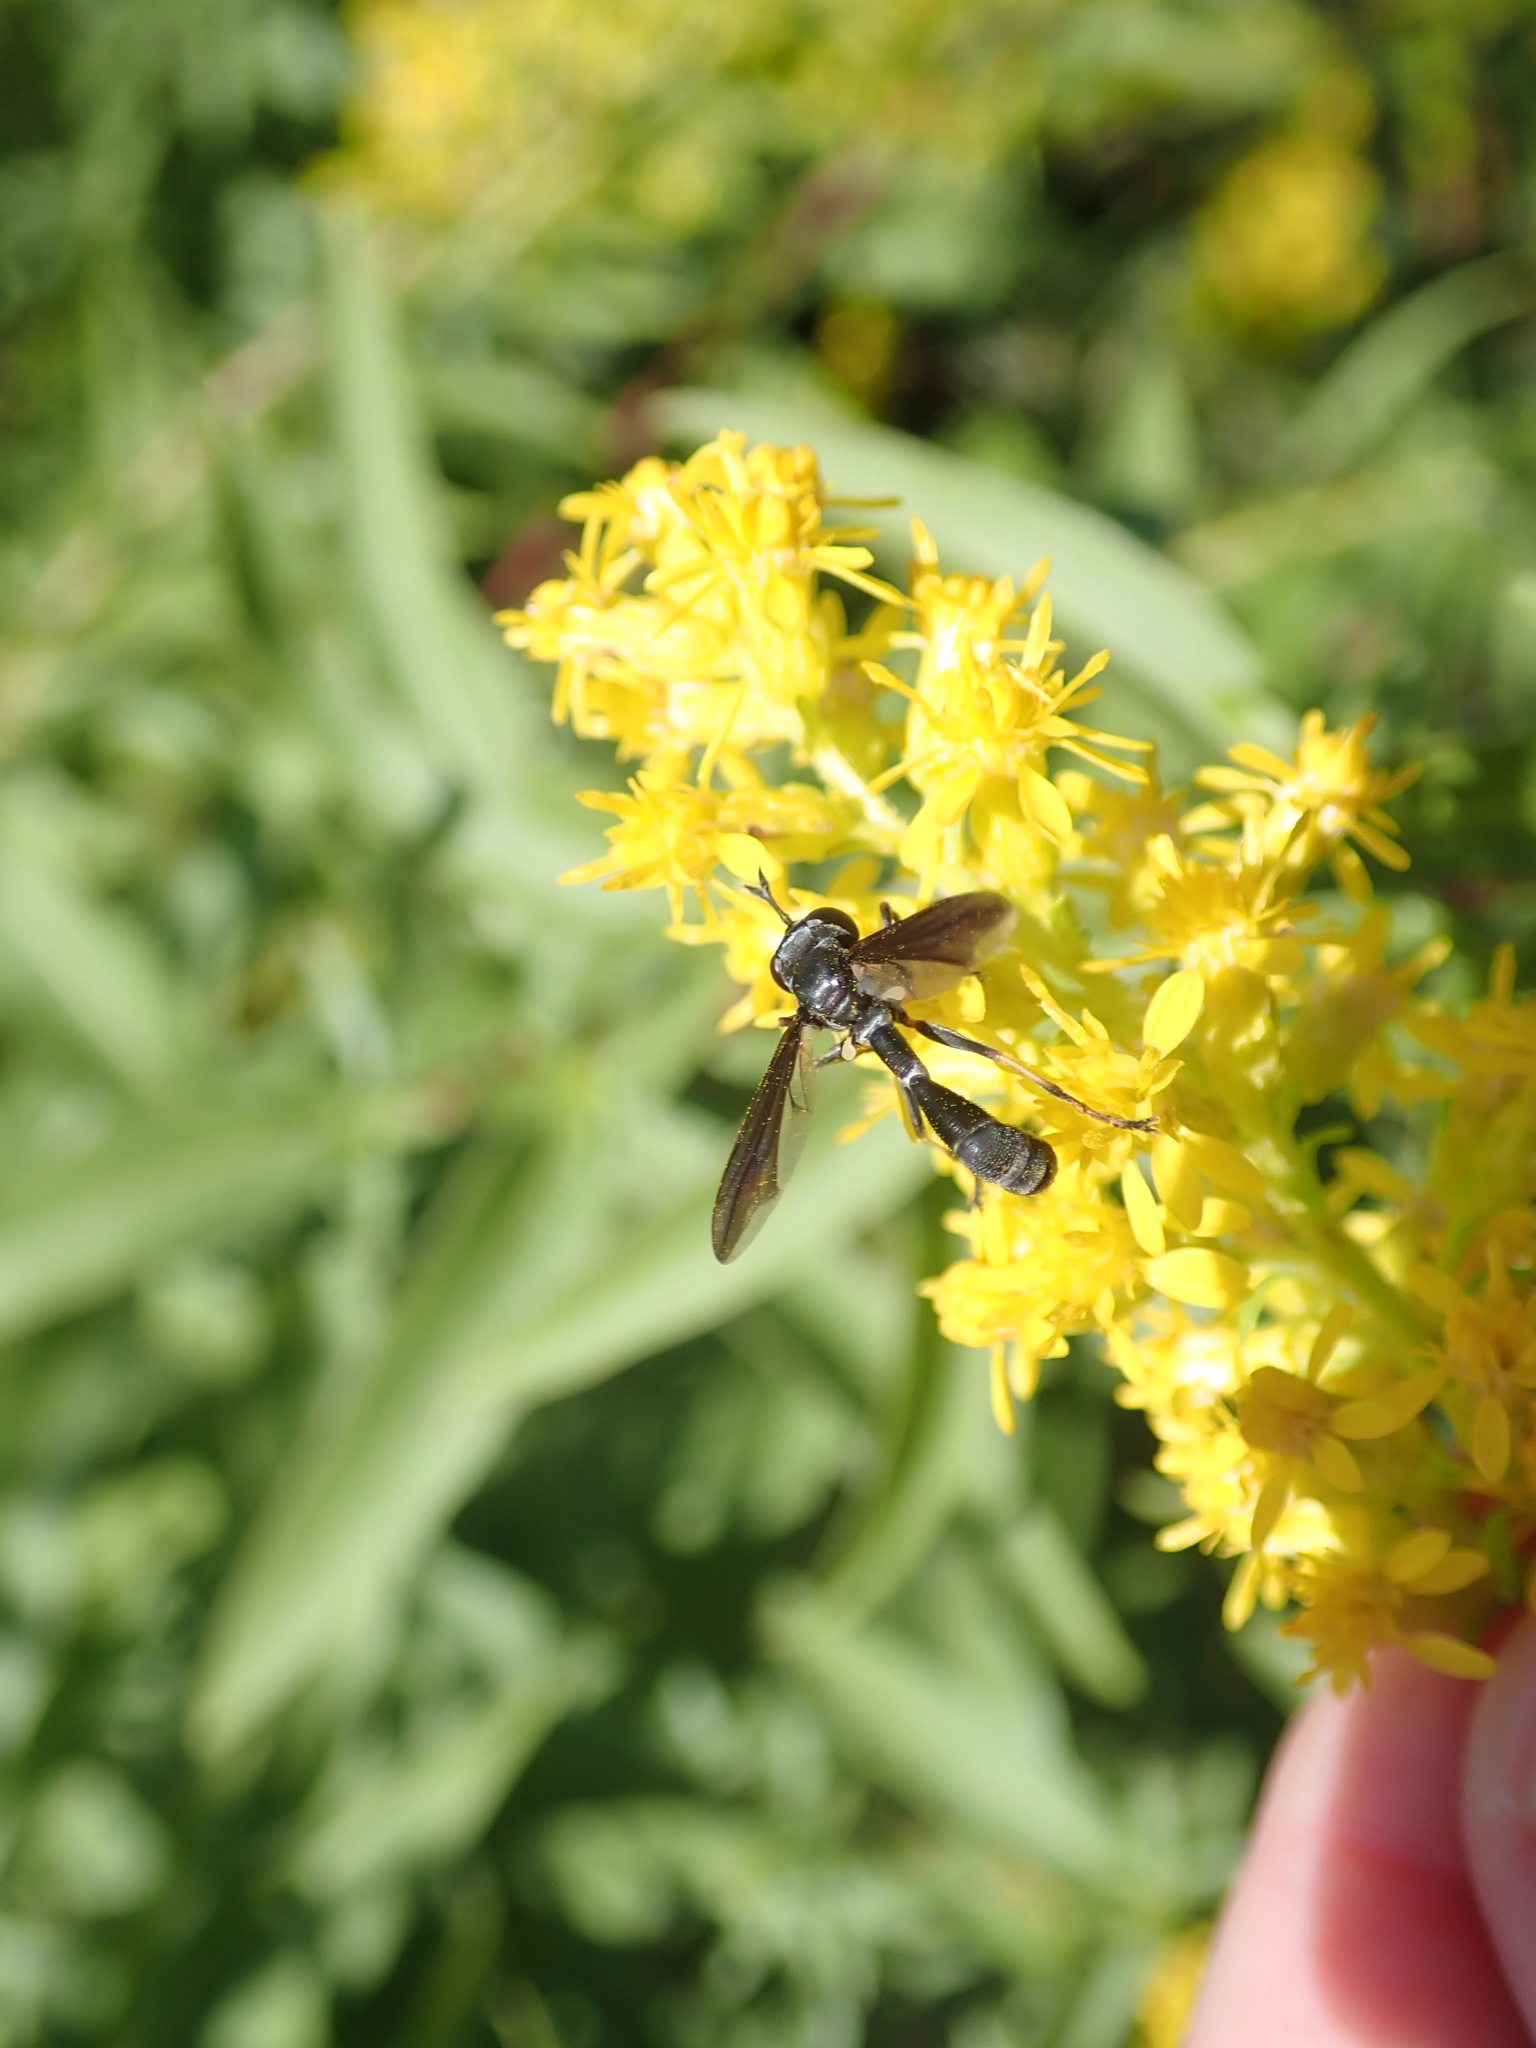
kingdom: Animalia
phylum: Arthropoda
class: Insecta
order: Diptera
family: Conopidae
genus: Physocephala
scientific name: Physocephala tibialis
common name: Common eastern physocephala
